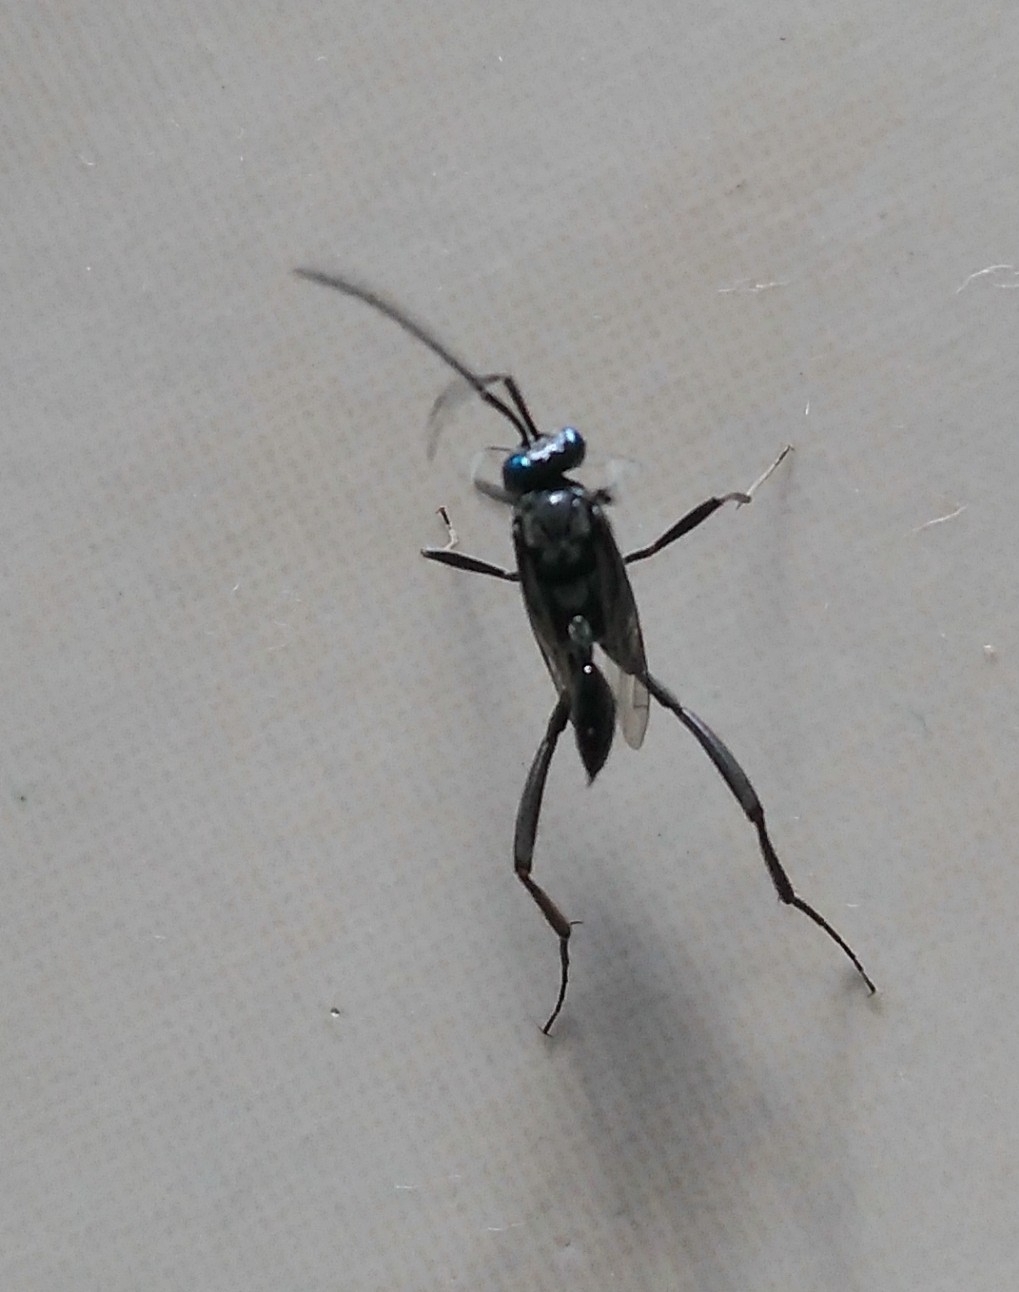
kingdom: Animalia
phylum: Arthropoda
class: Insecta
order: Hymenoptera
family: Evaniidae
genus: Evania
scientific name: Evania appendigaster
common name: Ensign wasp
